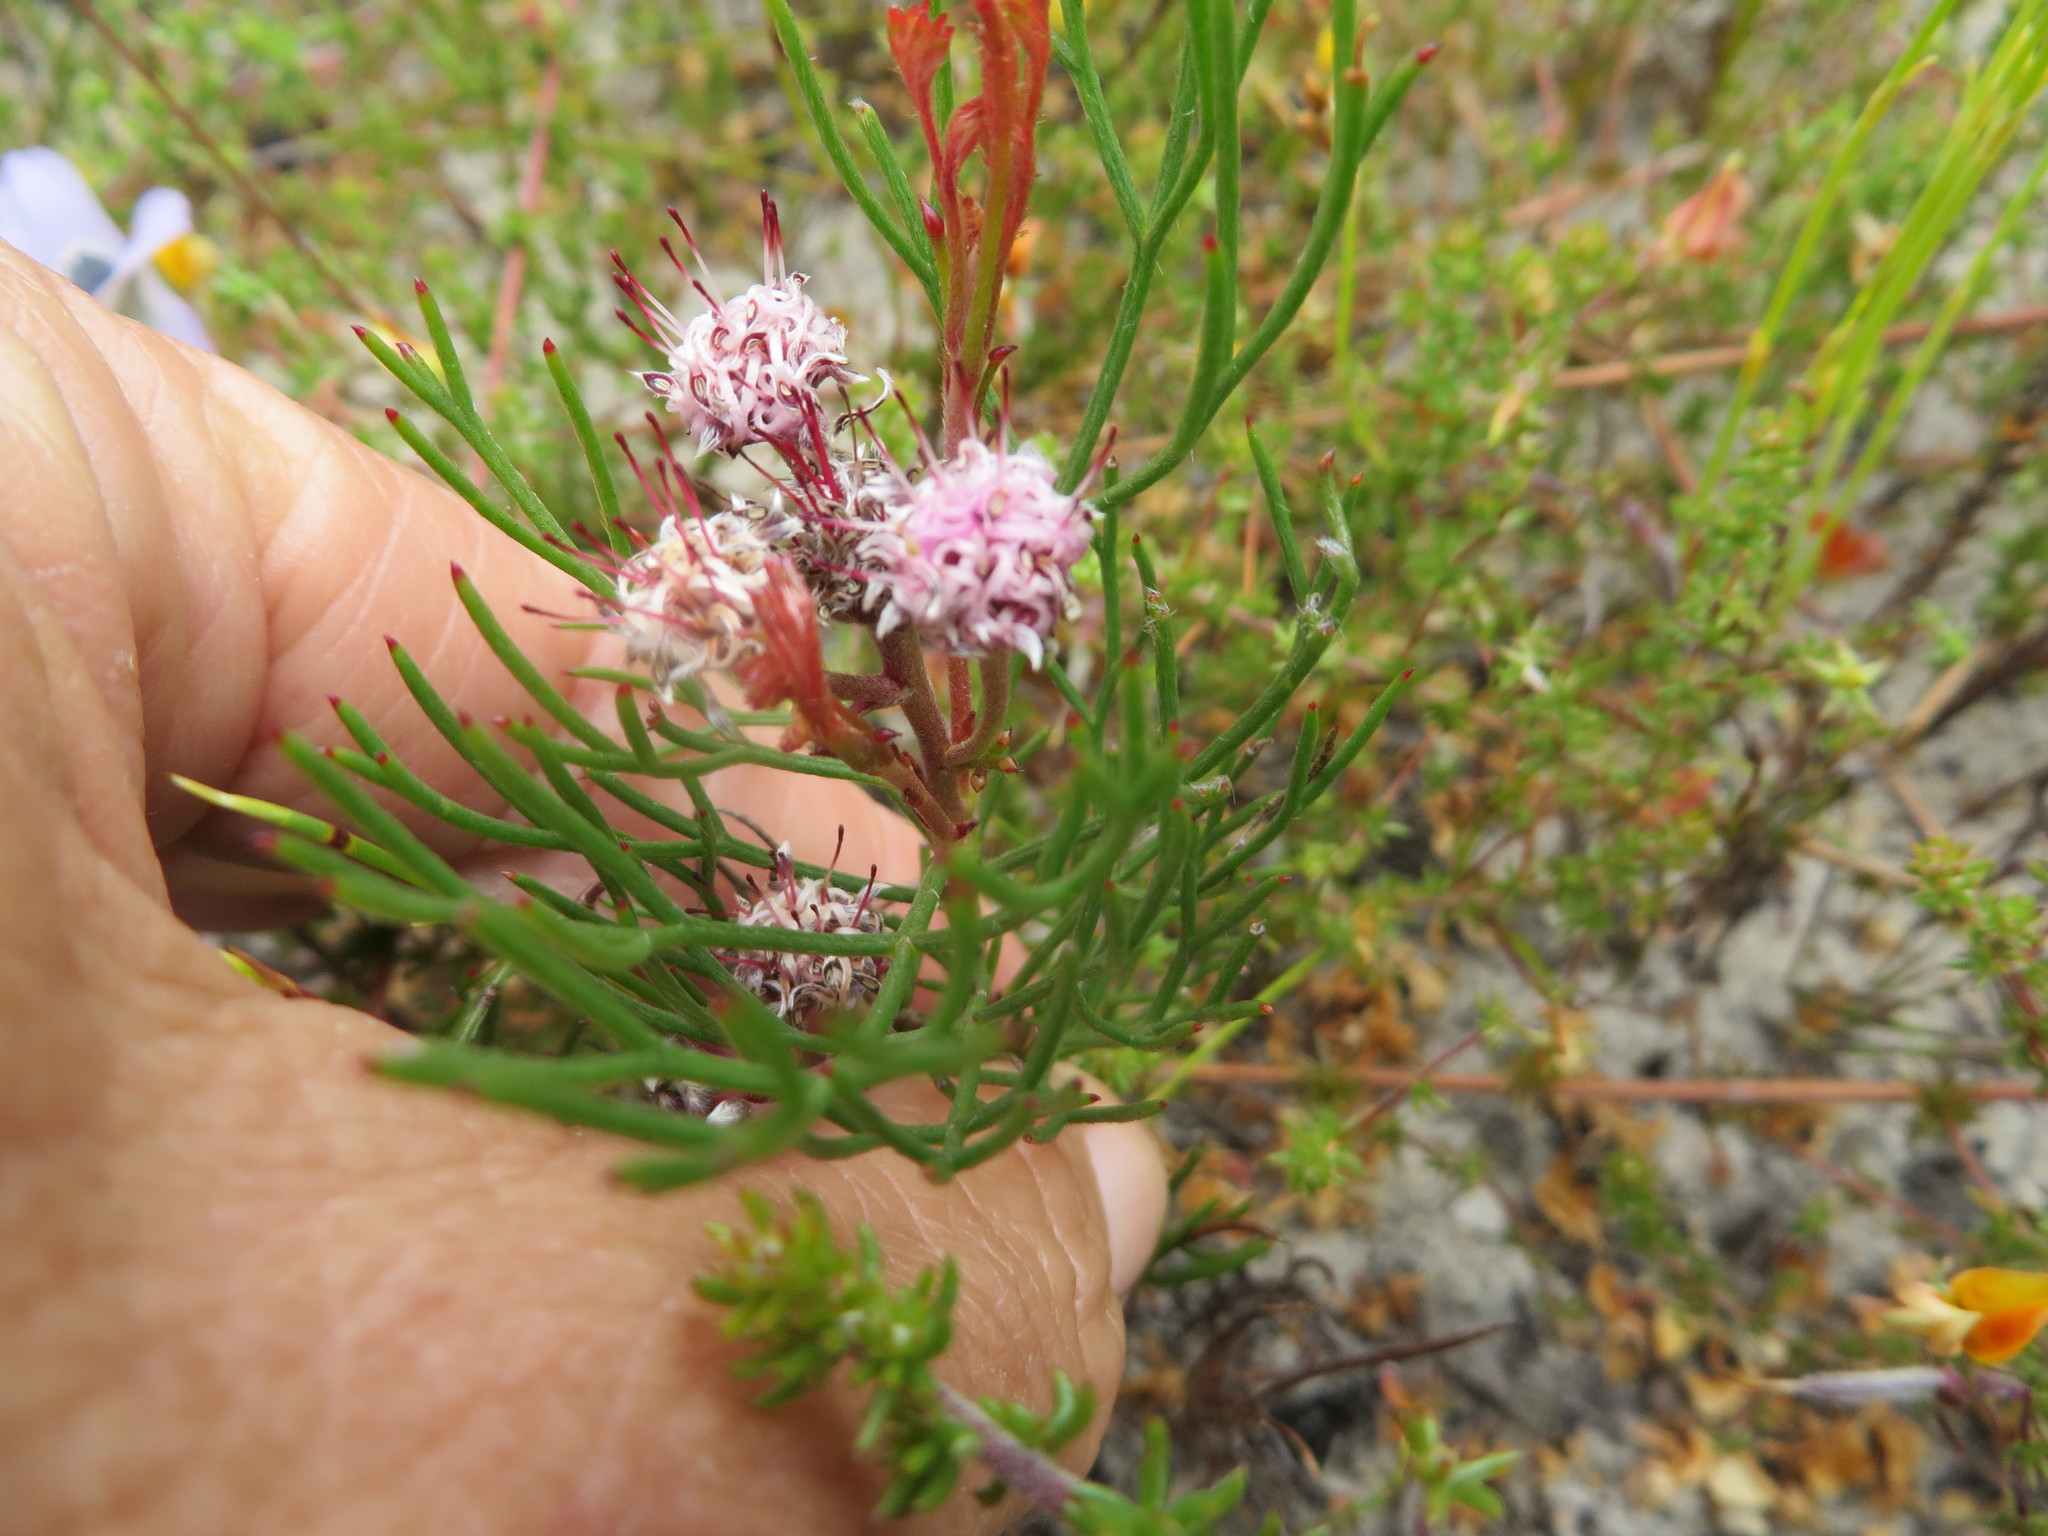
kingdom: Plantae
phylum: Tracheophyta
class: Magnoliopsida
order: Proteales
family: Proteaceae
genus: Serruria
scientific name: Serruria fasciflora
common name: Common pin spiderhead
